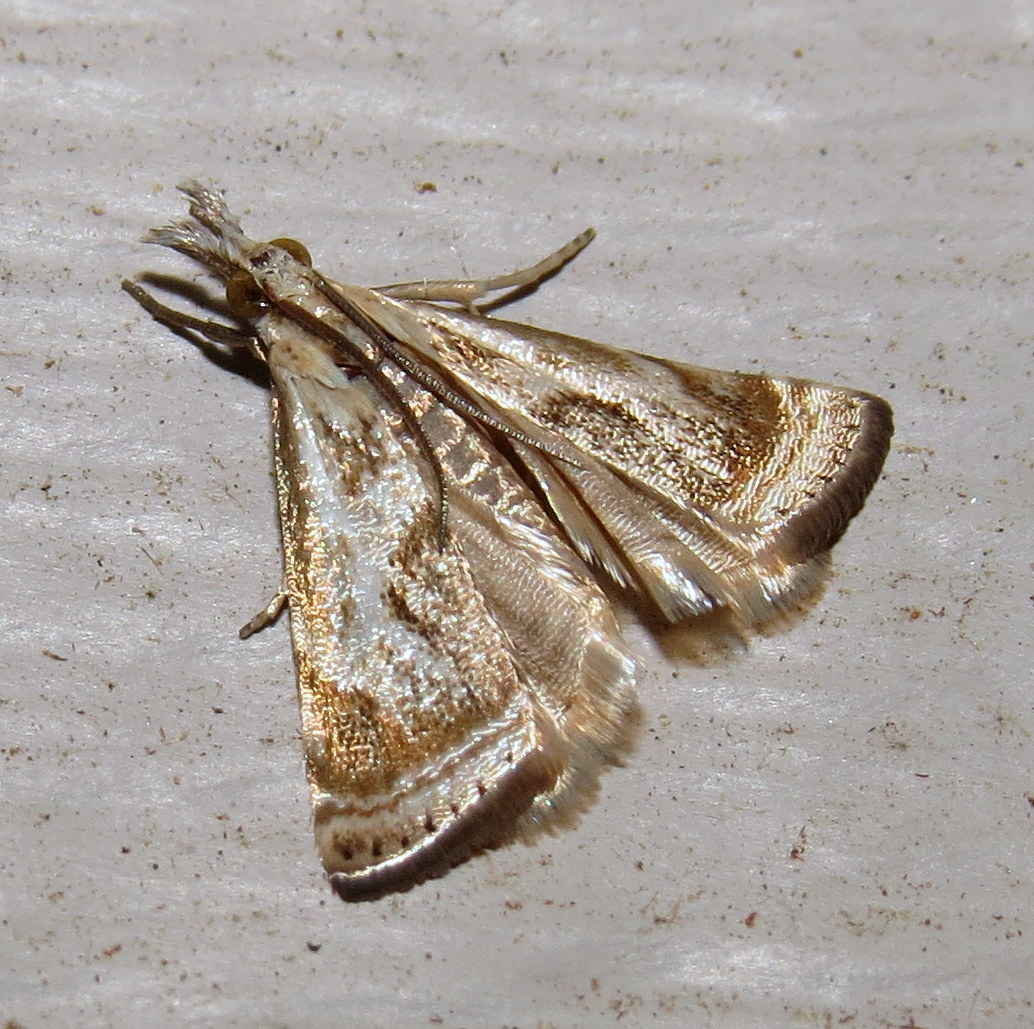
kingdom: Animalia
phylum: Arthropoda
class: Insecta
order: Lepidoptera
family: Crambidae
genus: Microcrambus
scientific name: Microcrambus elegans
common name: Elegant grass-veneer
